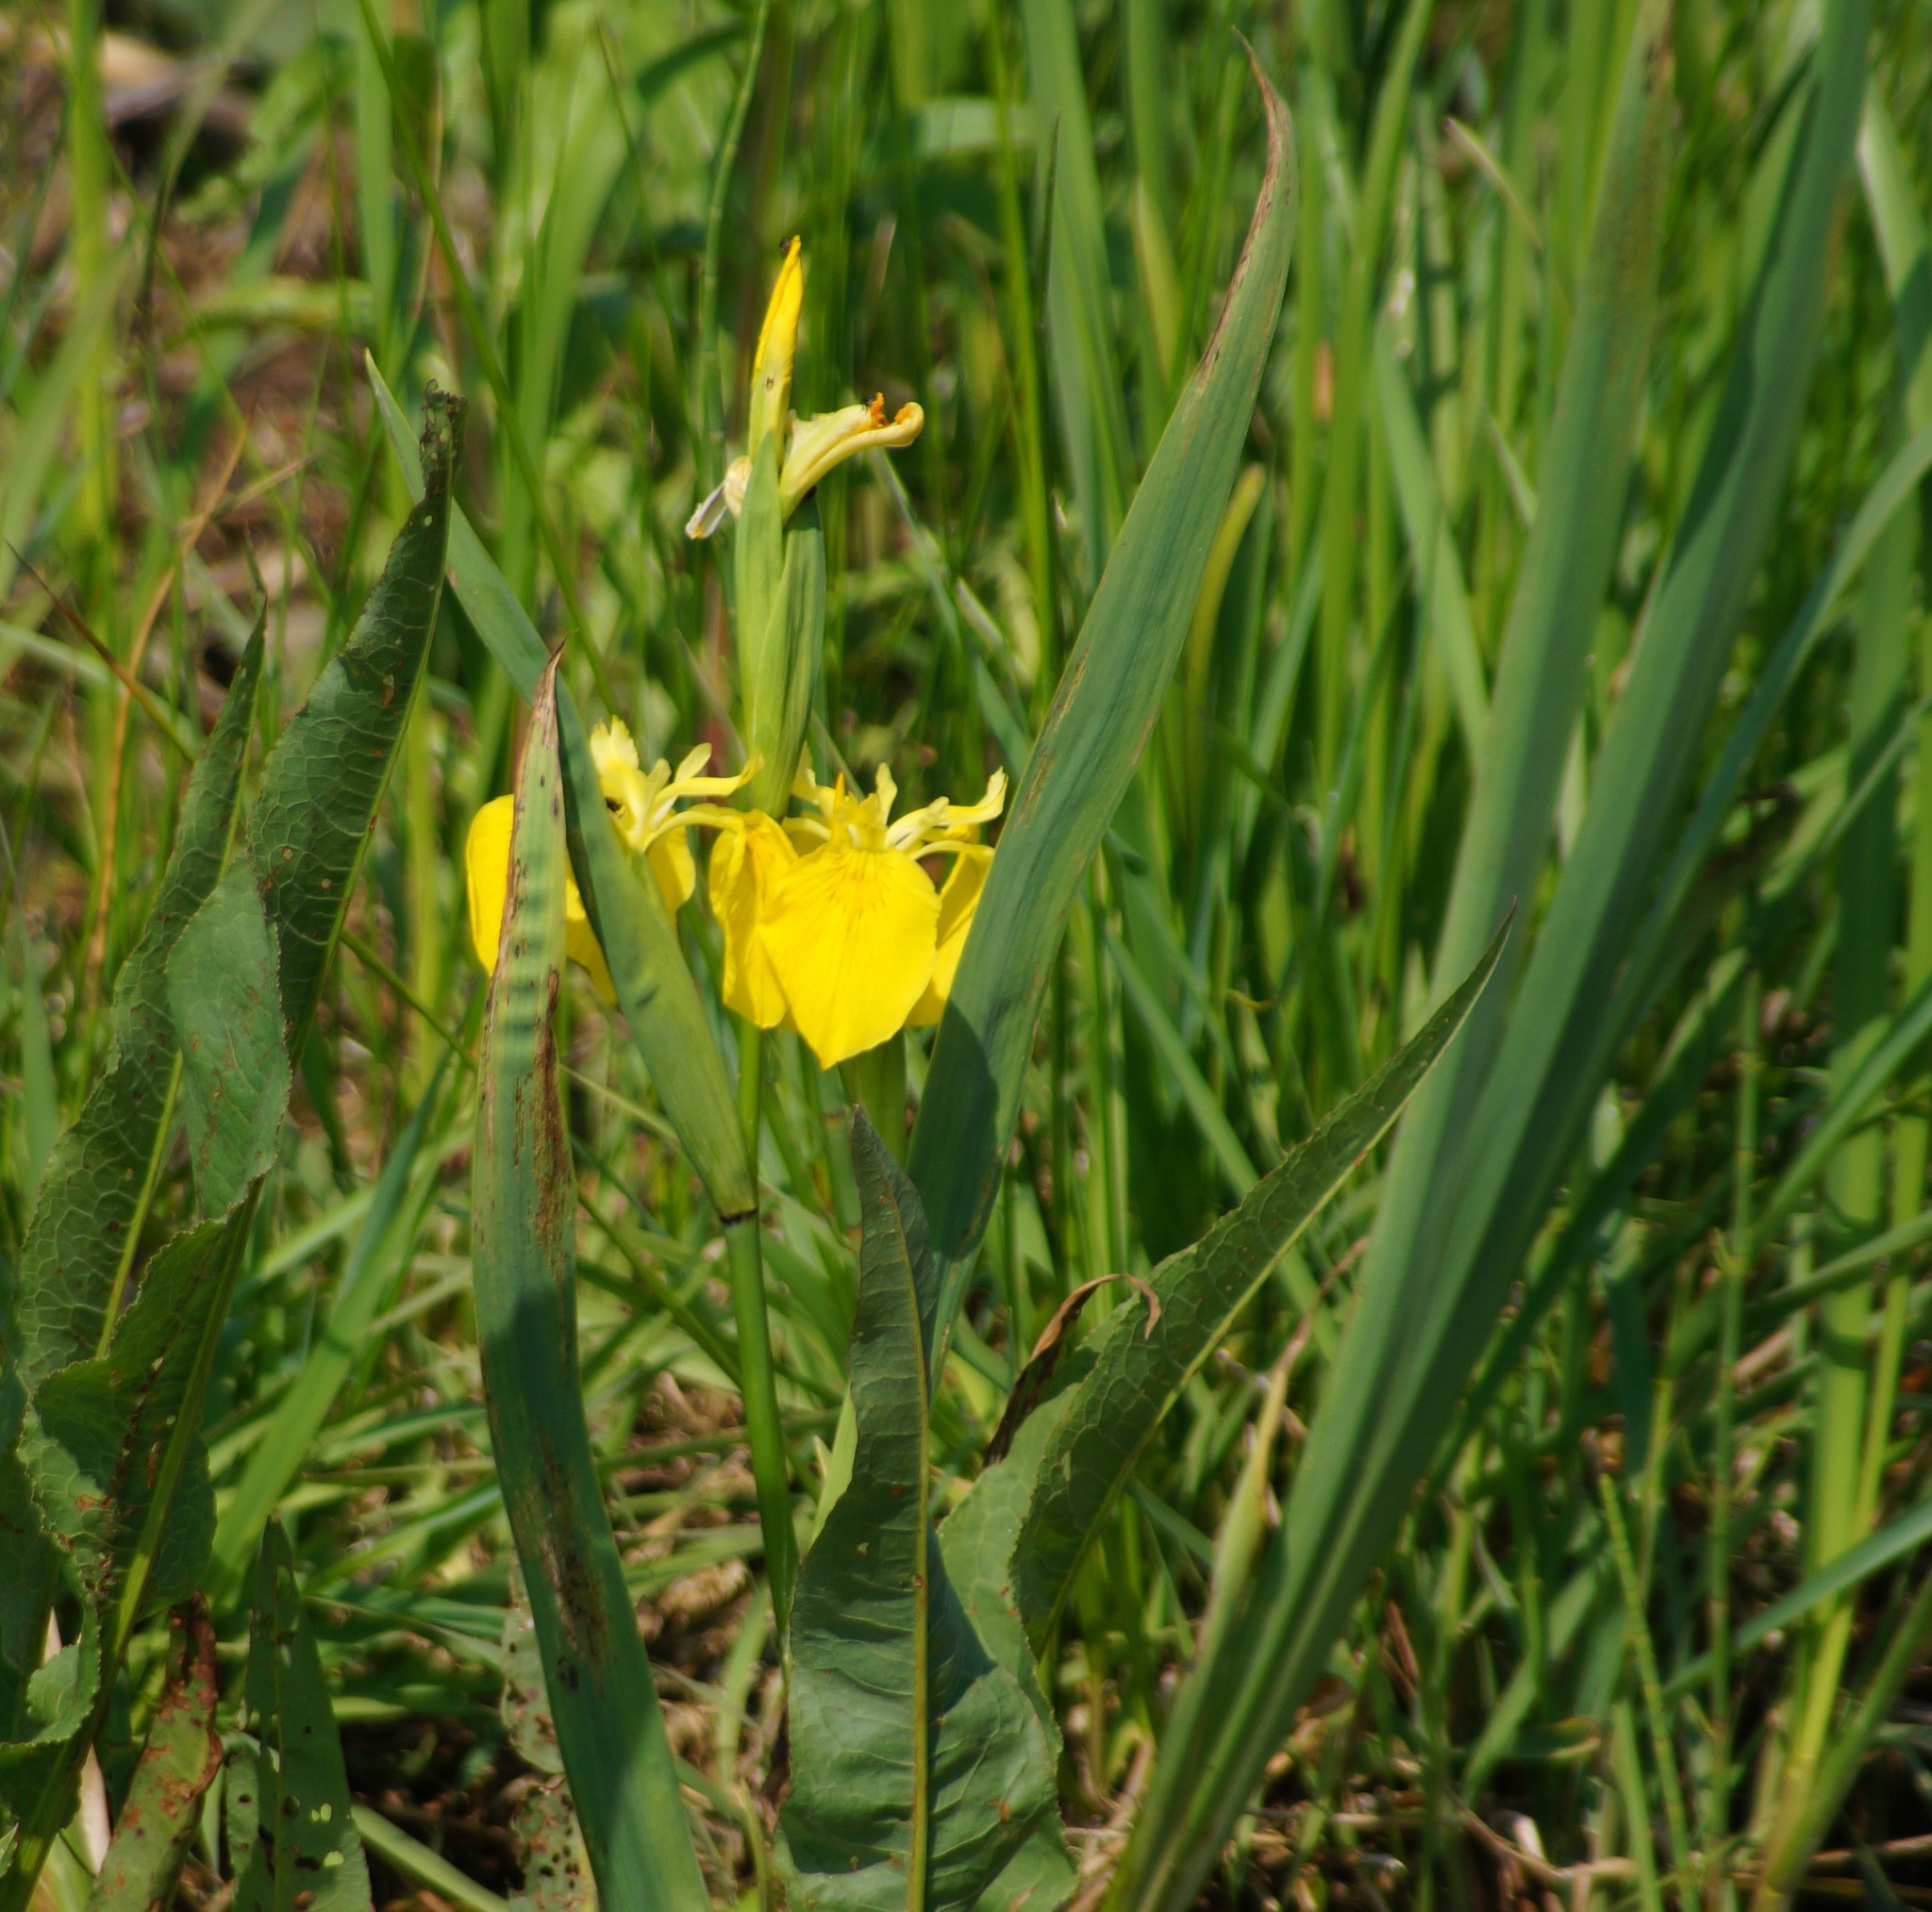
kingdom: Plantae
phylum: Tracheophyta
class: Liliopsida
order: Asparagales
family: Iridaceae
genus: Iris
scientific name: Iris pseudacorus
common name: Yellow flag
